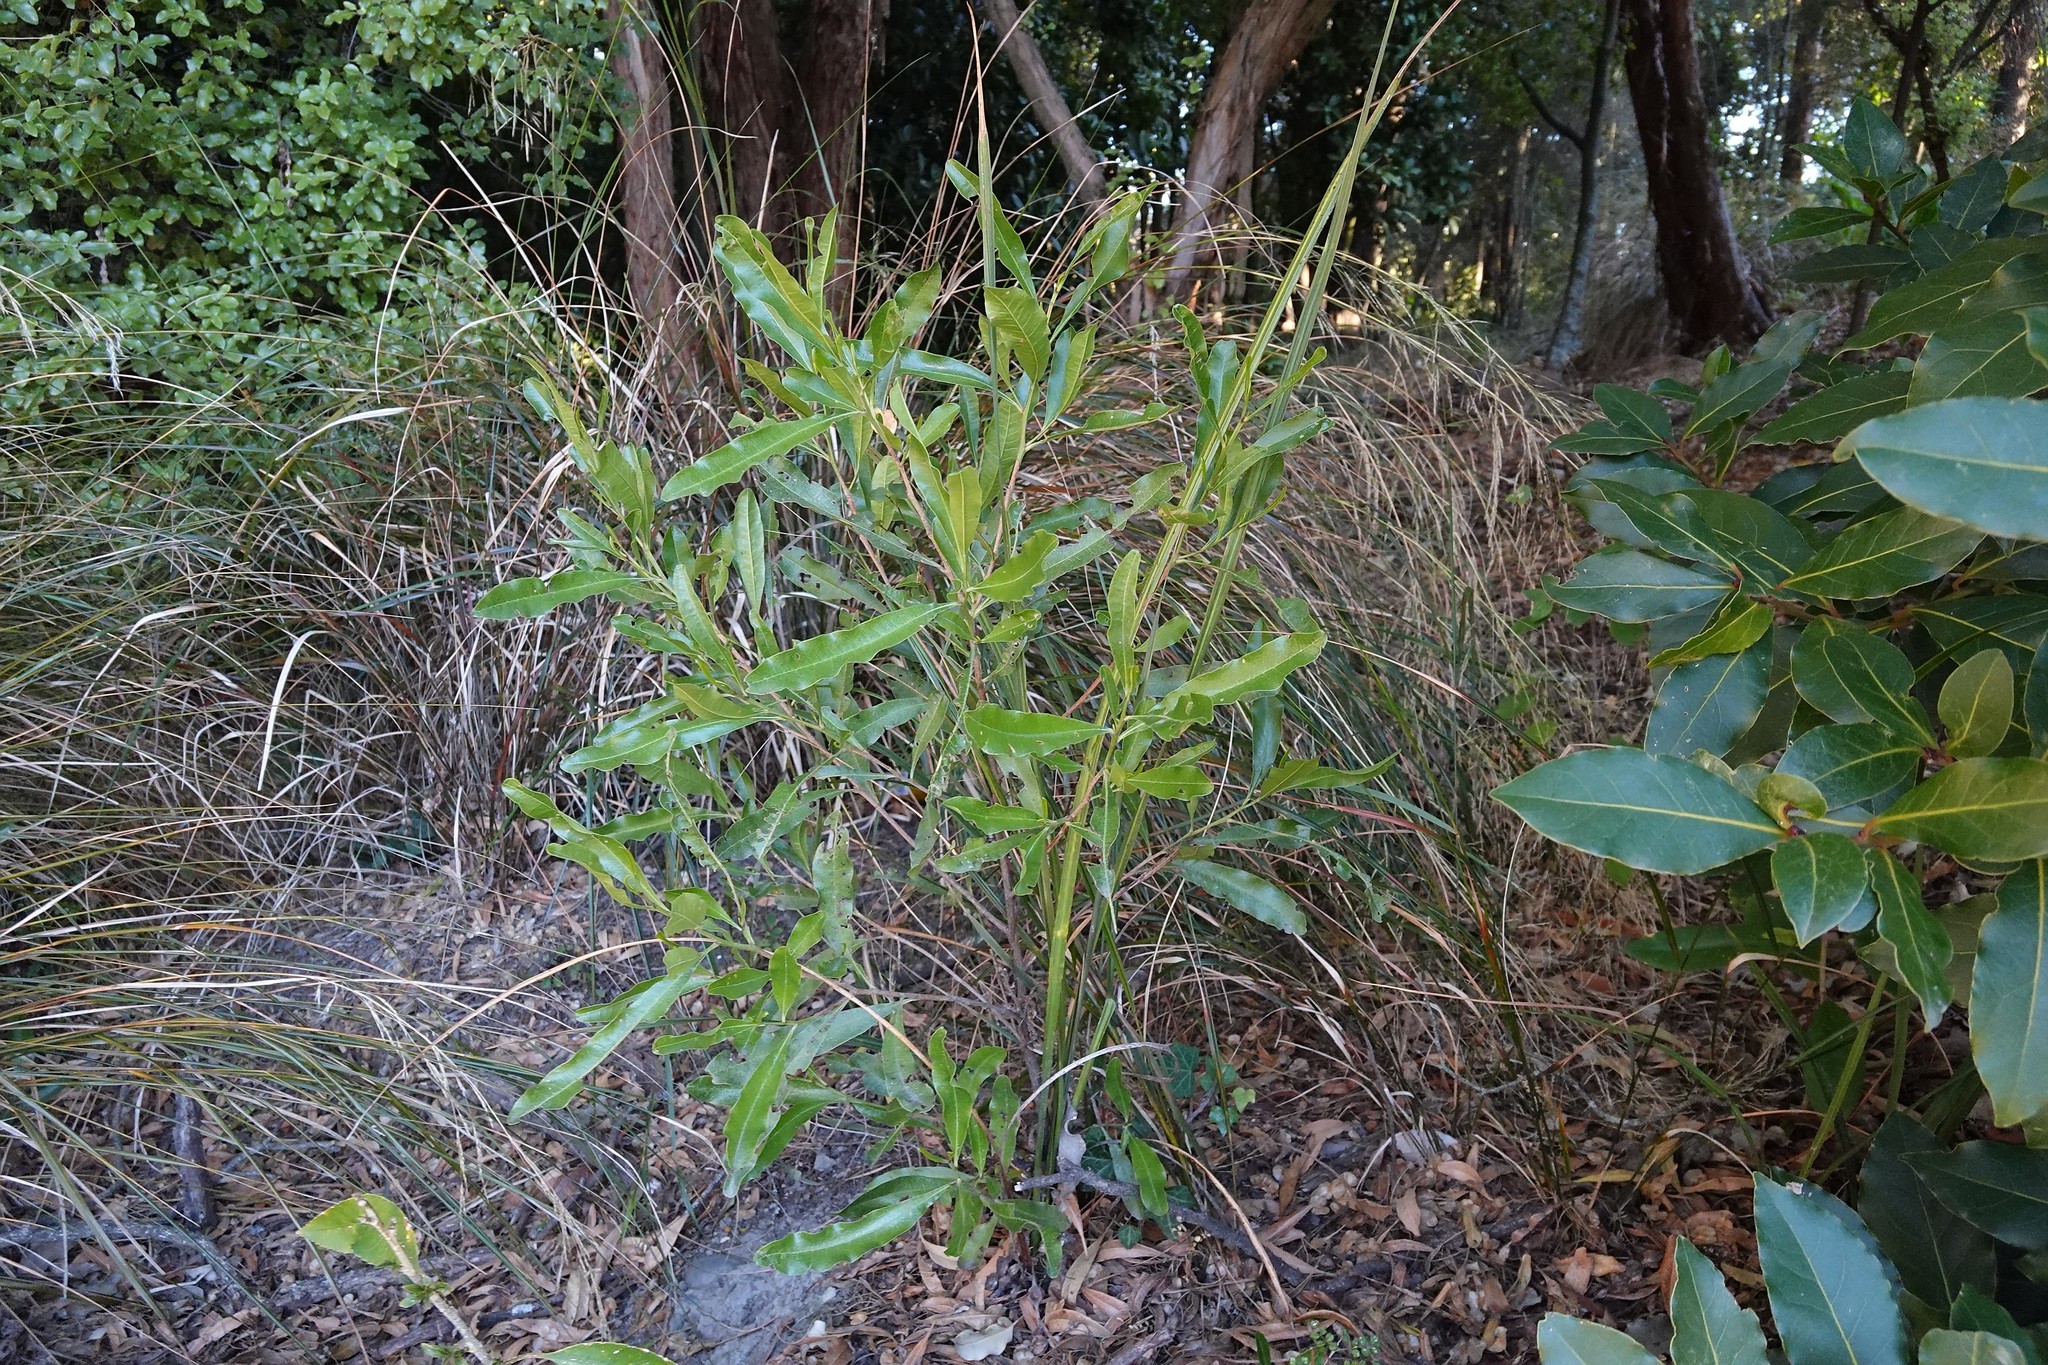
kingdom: Plantae
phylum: Tracheophyta
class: Magnoliopsida
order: Sapindales
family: Sapindaceae
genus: Dodonaea
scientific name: Dodonaea viscosa
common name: Hopbush
